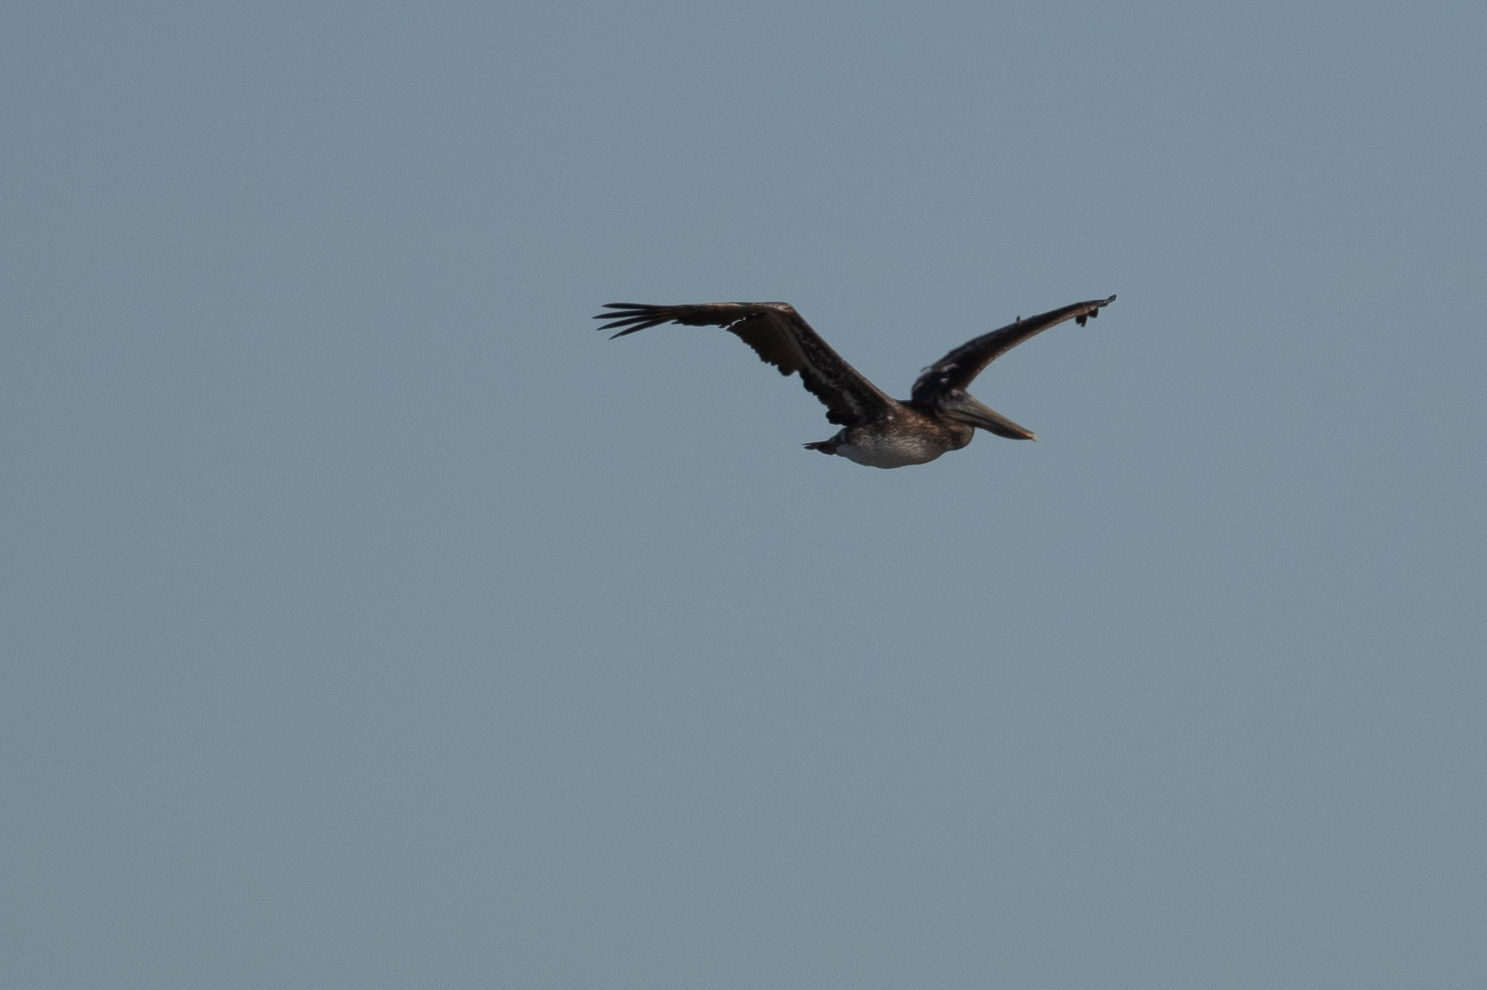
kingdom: Animalia
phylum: Chordata
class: Aves
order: Pelecaniformes
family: Pelecanidae
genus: Pelecanus
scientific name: Pelecanus occidentalis
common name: Brown pelican
